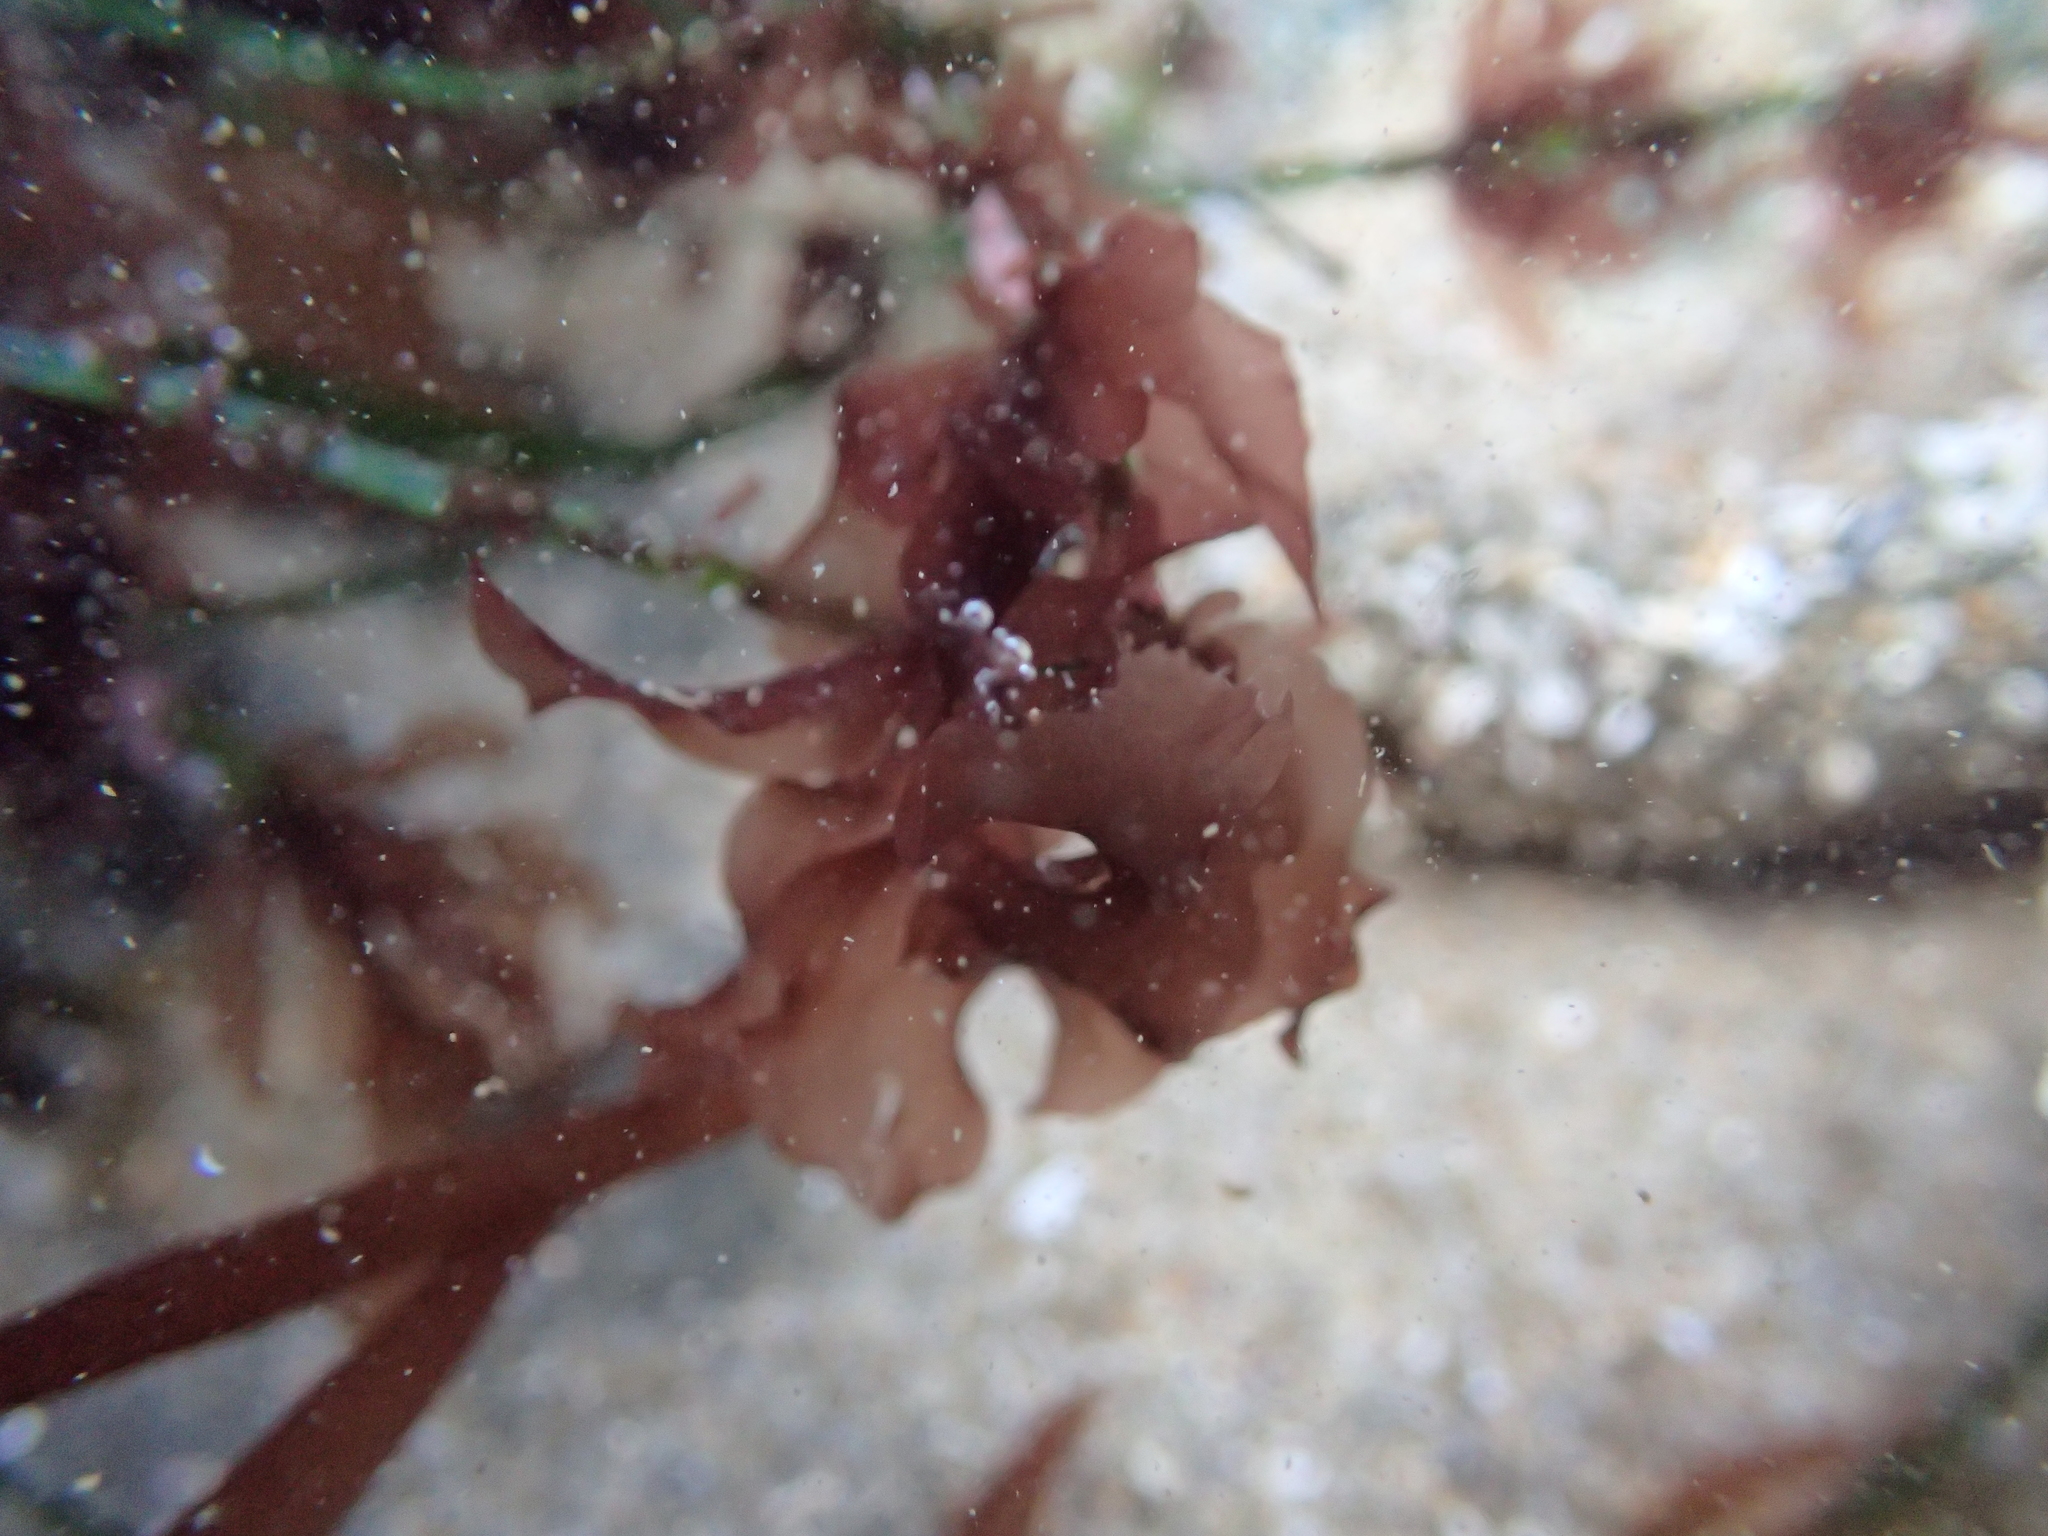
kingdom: Plantae
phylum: Rhodophyta
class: Compsopogonophyceae
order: Erythropeltidales
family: Erythrotrichiaceae
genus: Smithora
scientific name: Smithora naiadum
